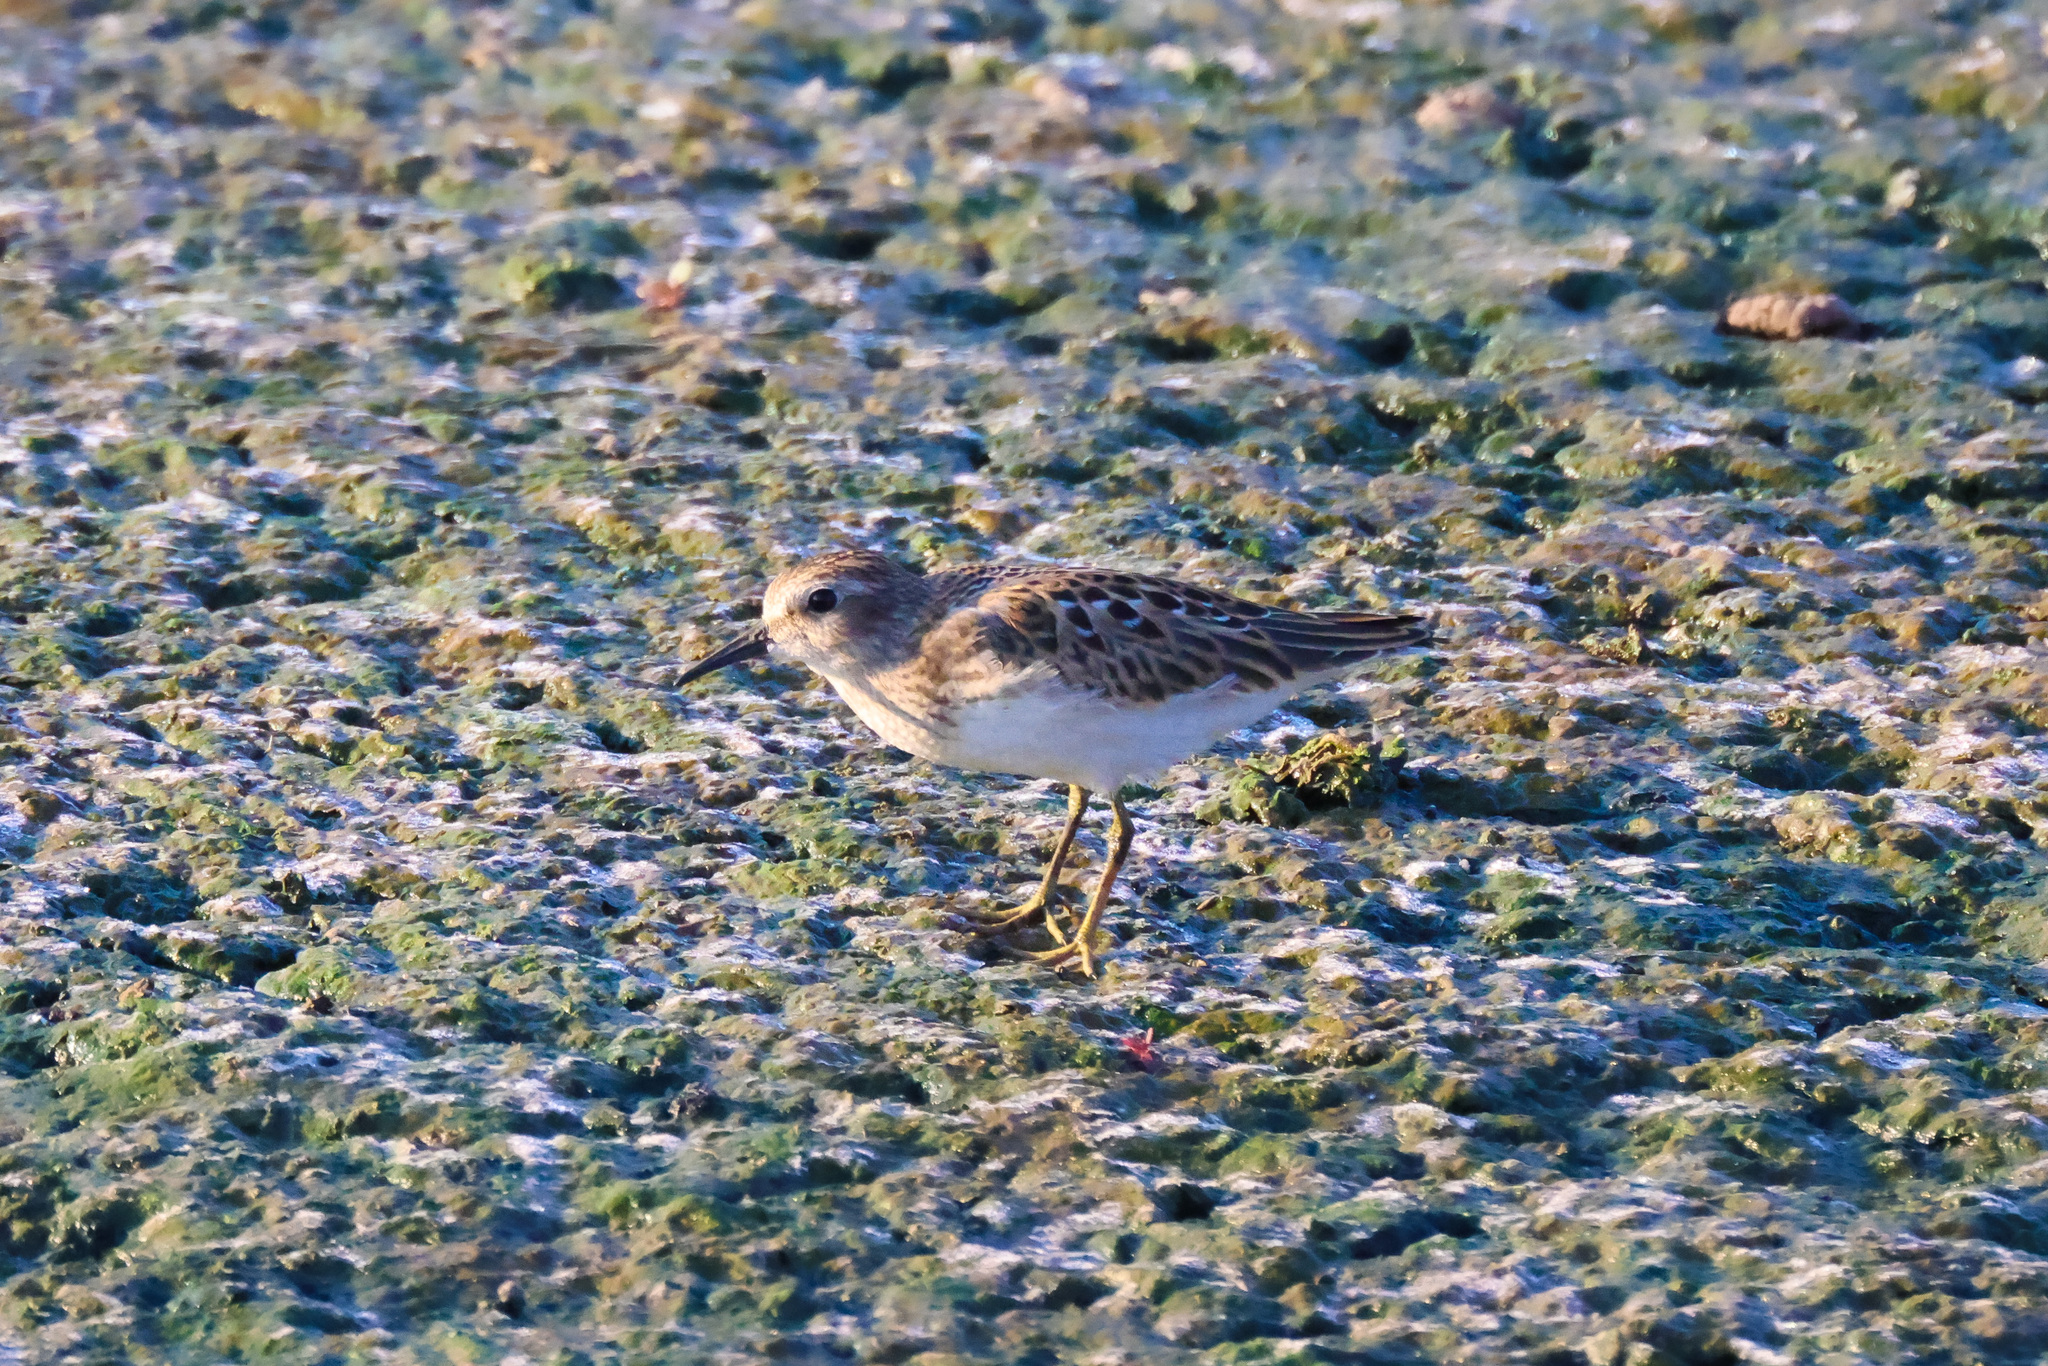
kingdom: Animalia
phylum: Chordata
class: Aves
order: Charadriiformes
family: Scolopacidae
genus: Calidris
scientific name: Calidris minutilla
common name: Least sandpiper
